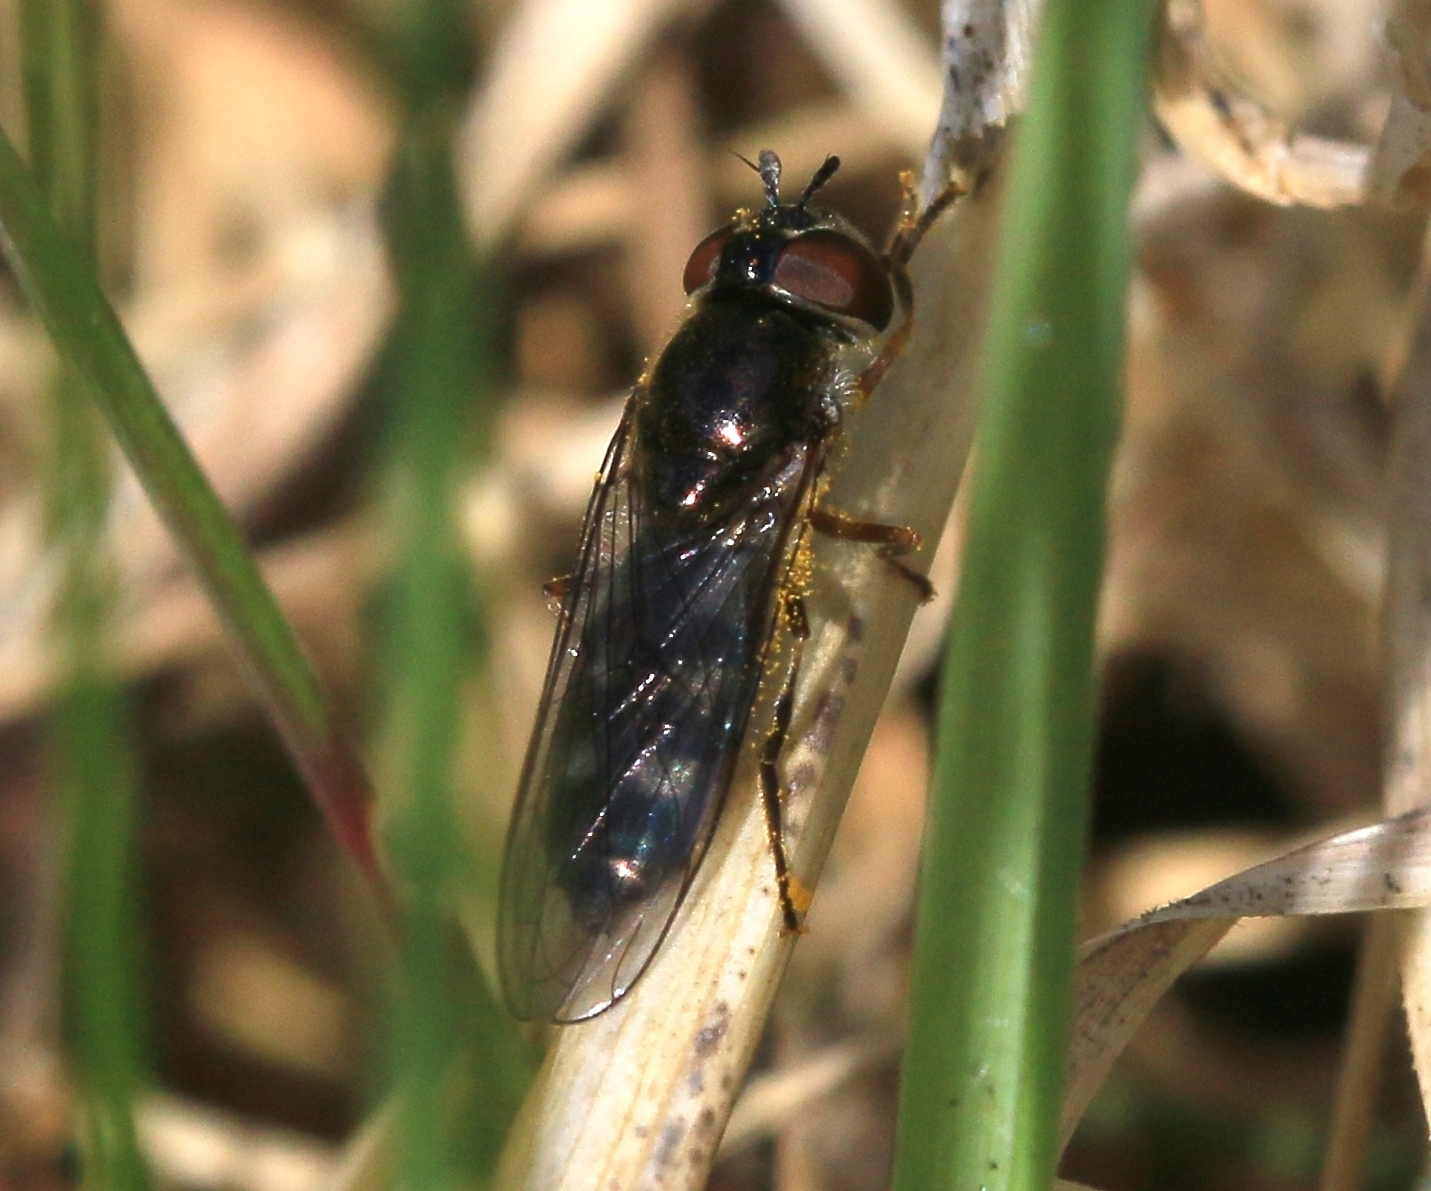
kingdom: Animalia
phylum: Arthropoda
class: Insecta
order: Diptera
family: Syrphidae
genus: Platycheirus
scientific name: Platycheirus albimanus
